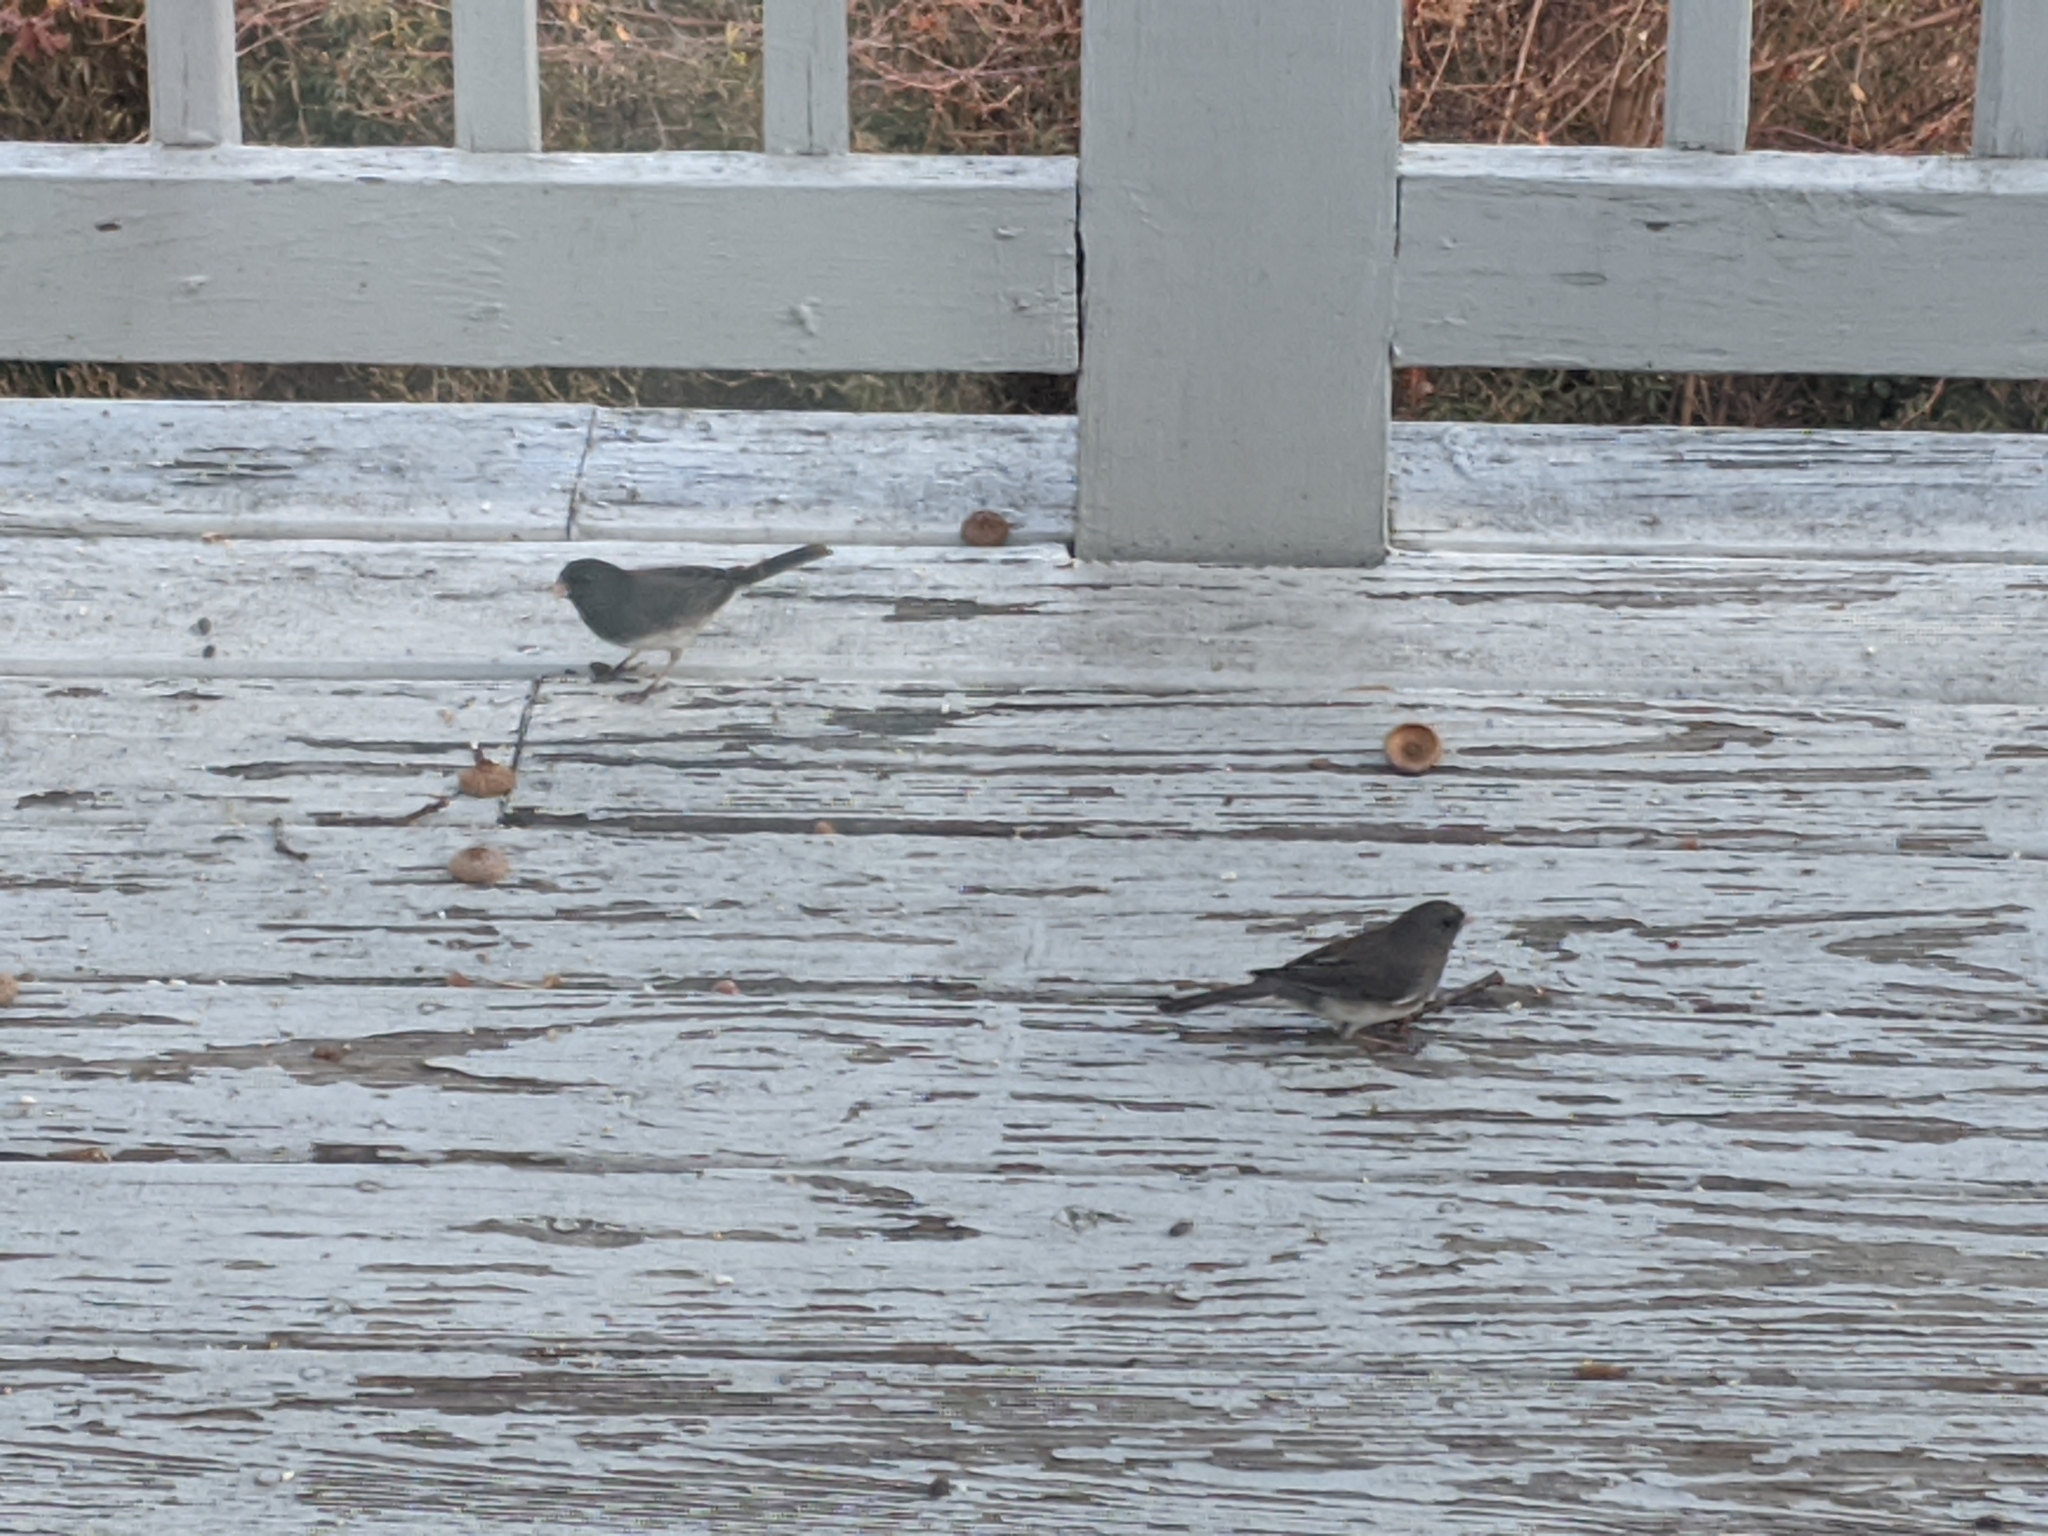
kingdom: Animalia
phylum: Chordata
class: Aves
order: Passeriformes
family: Passerellidae
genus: Junco
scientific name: Junco hyemalis
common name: Dark-eyed junco
